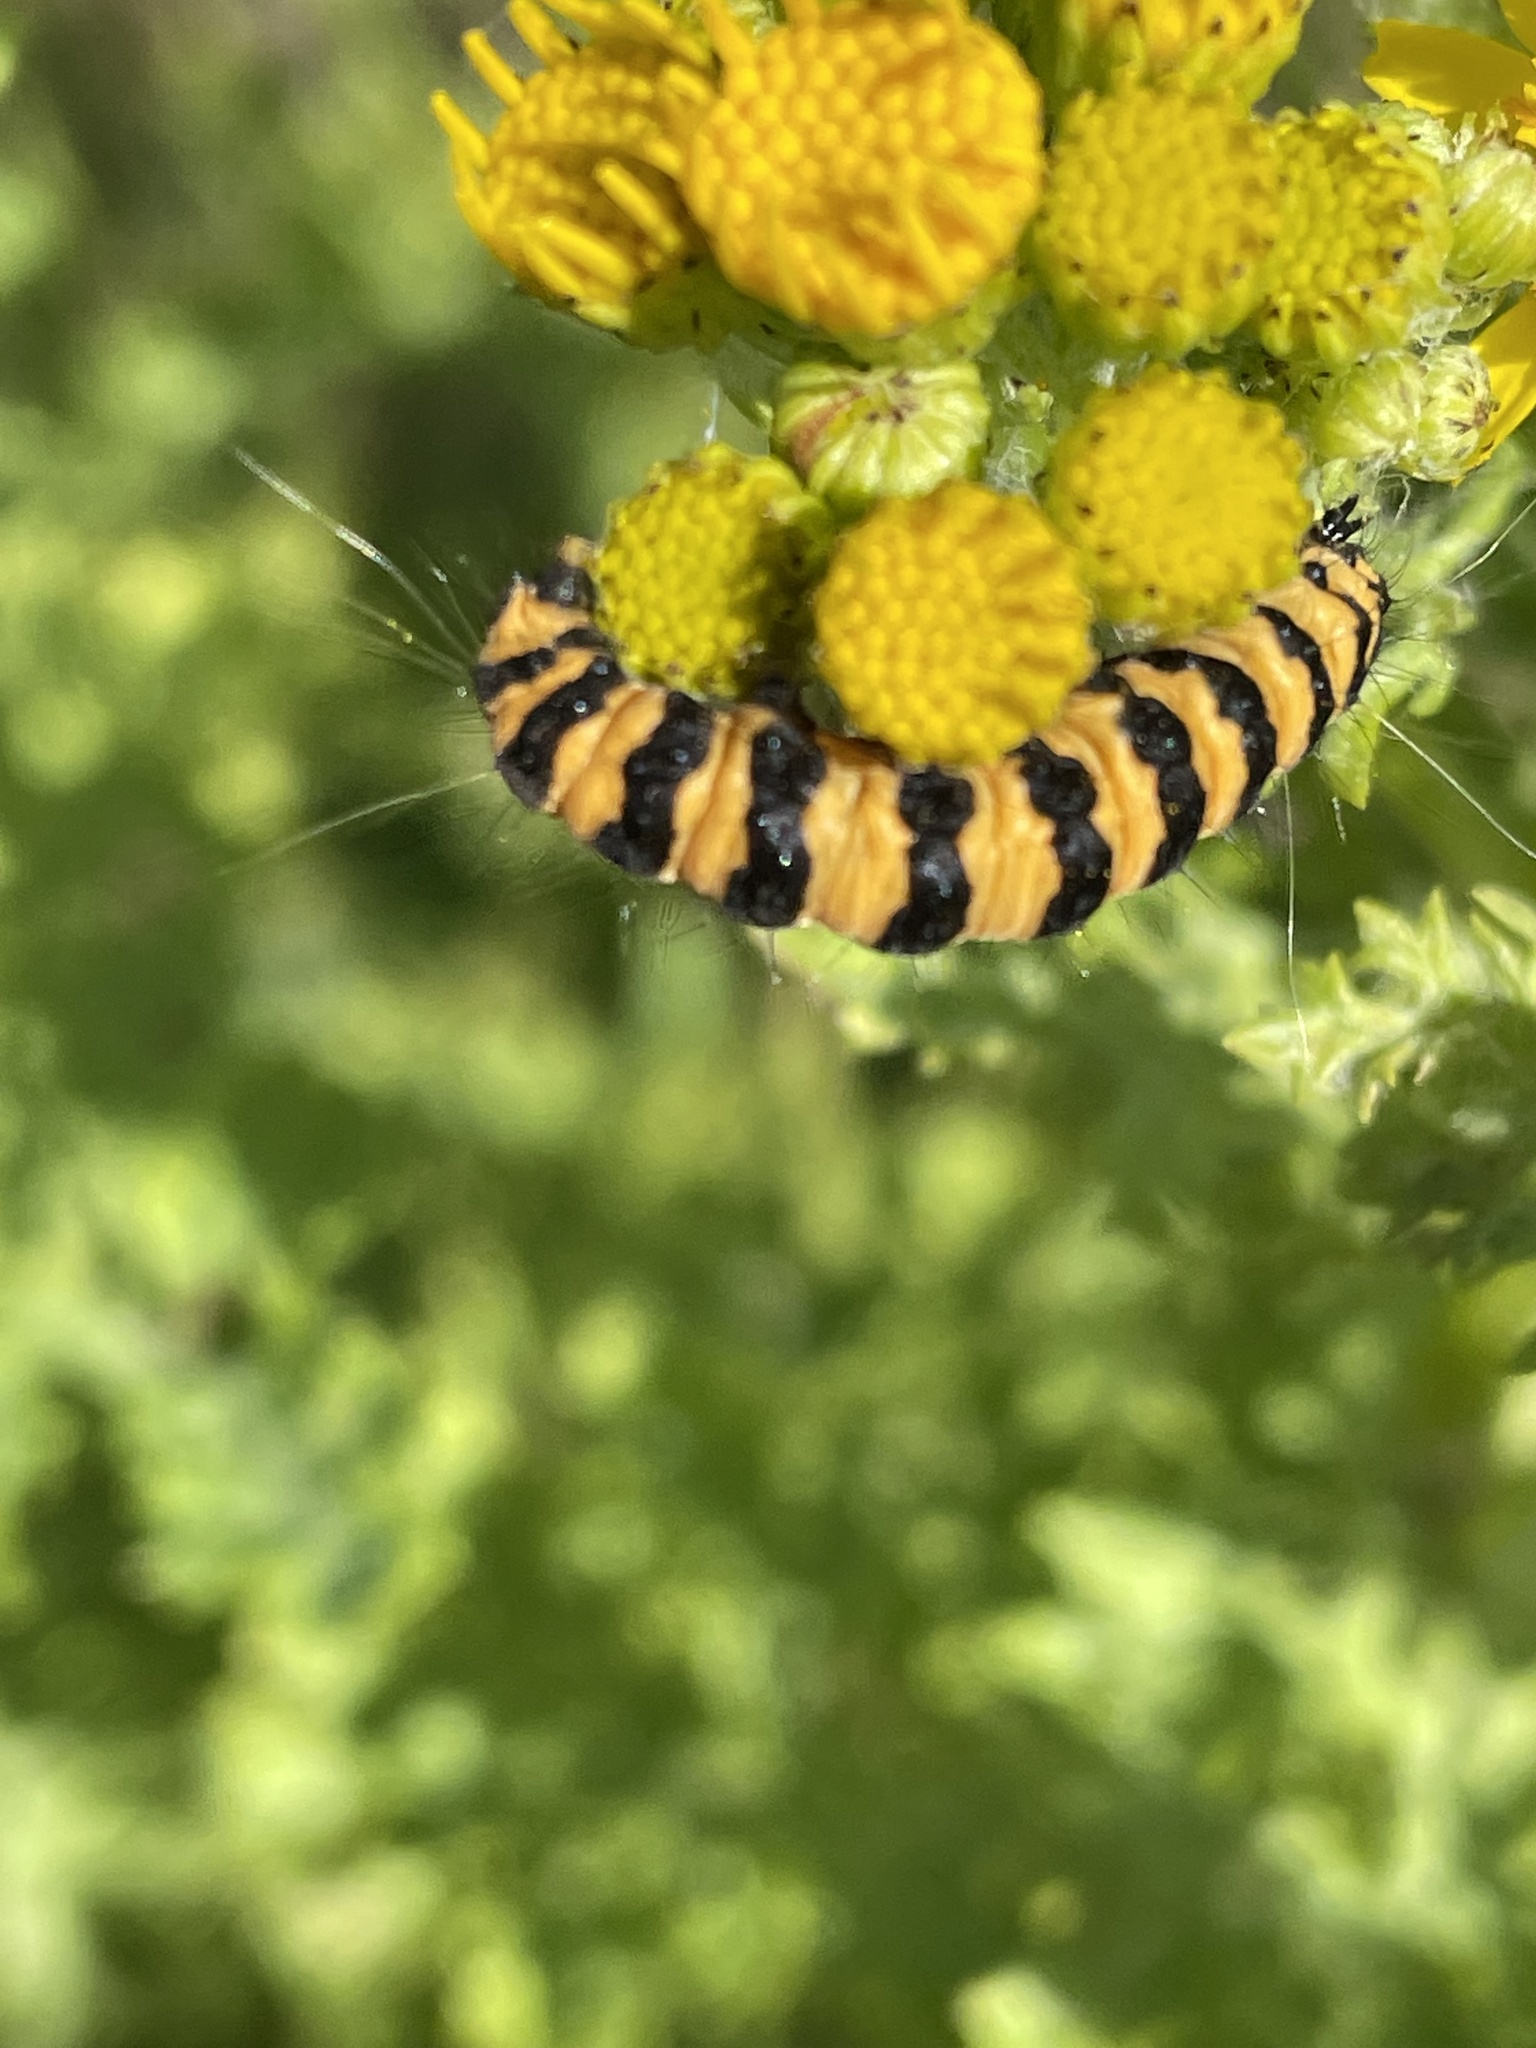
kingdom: Animalia
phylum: Arthropoda
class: Insecta
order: Lepidoptera
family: Erebidae
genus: Tyria
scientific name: Tyria jacobaeae
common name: Cinnabar
